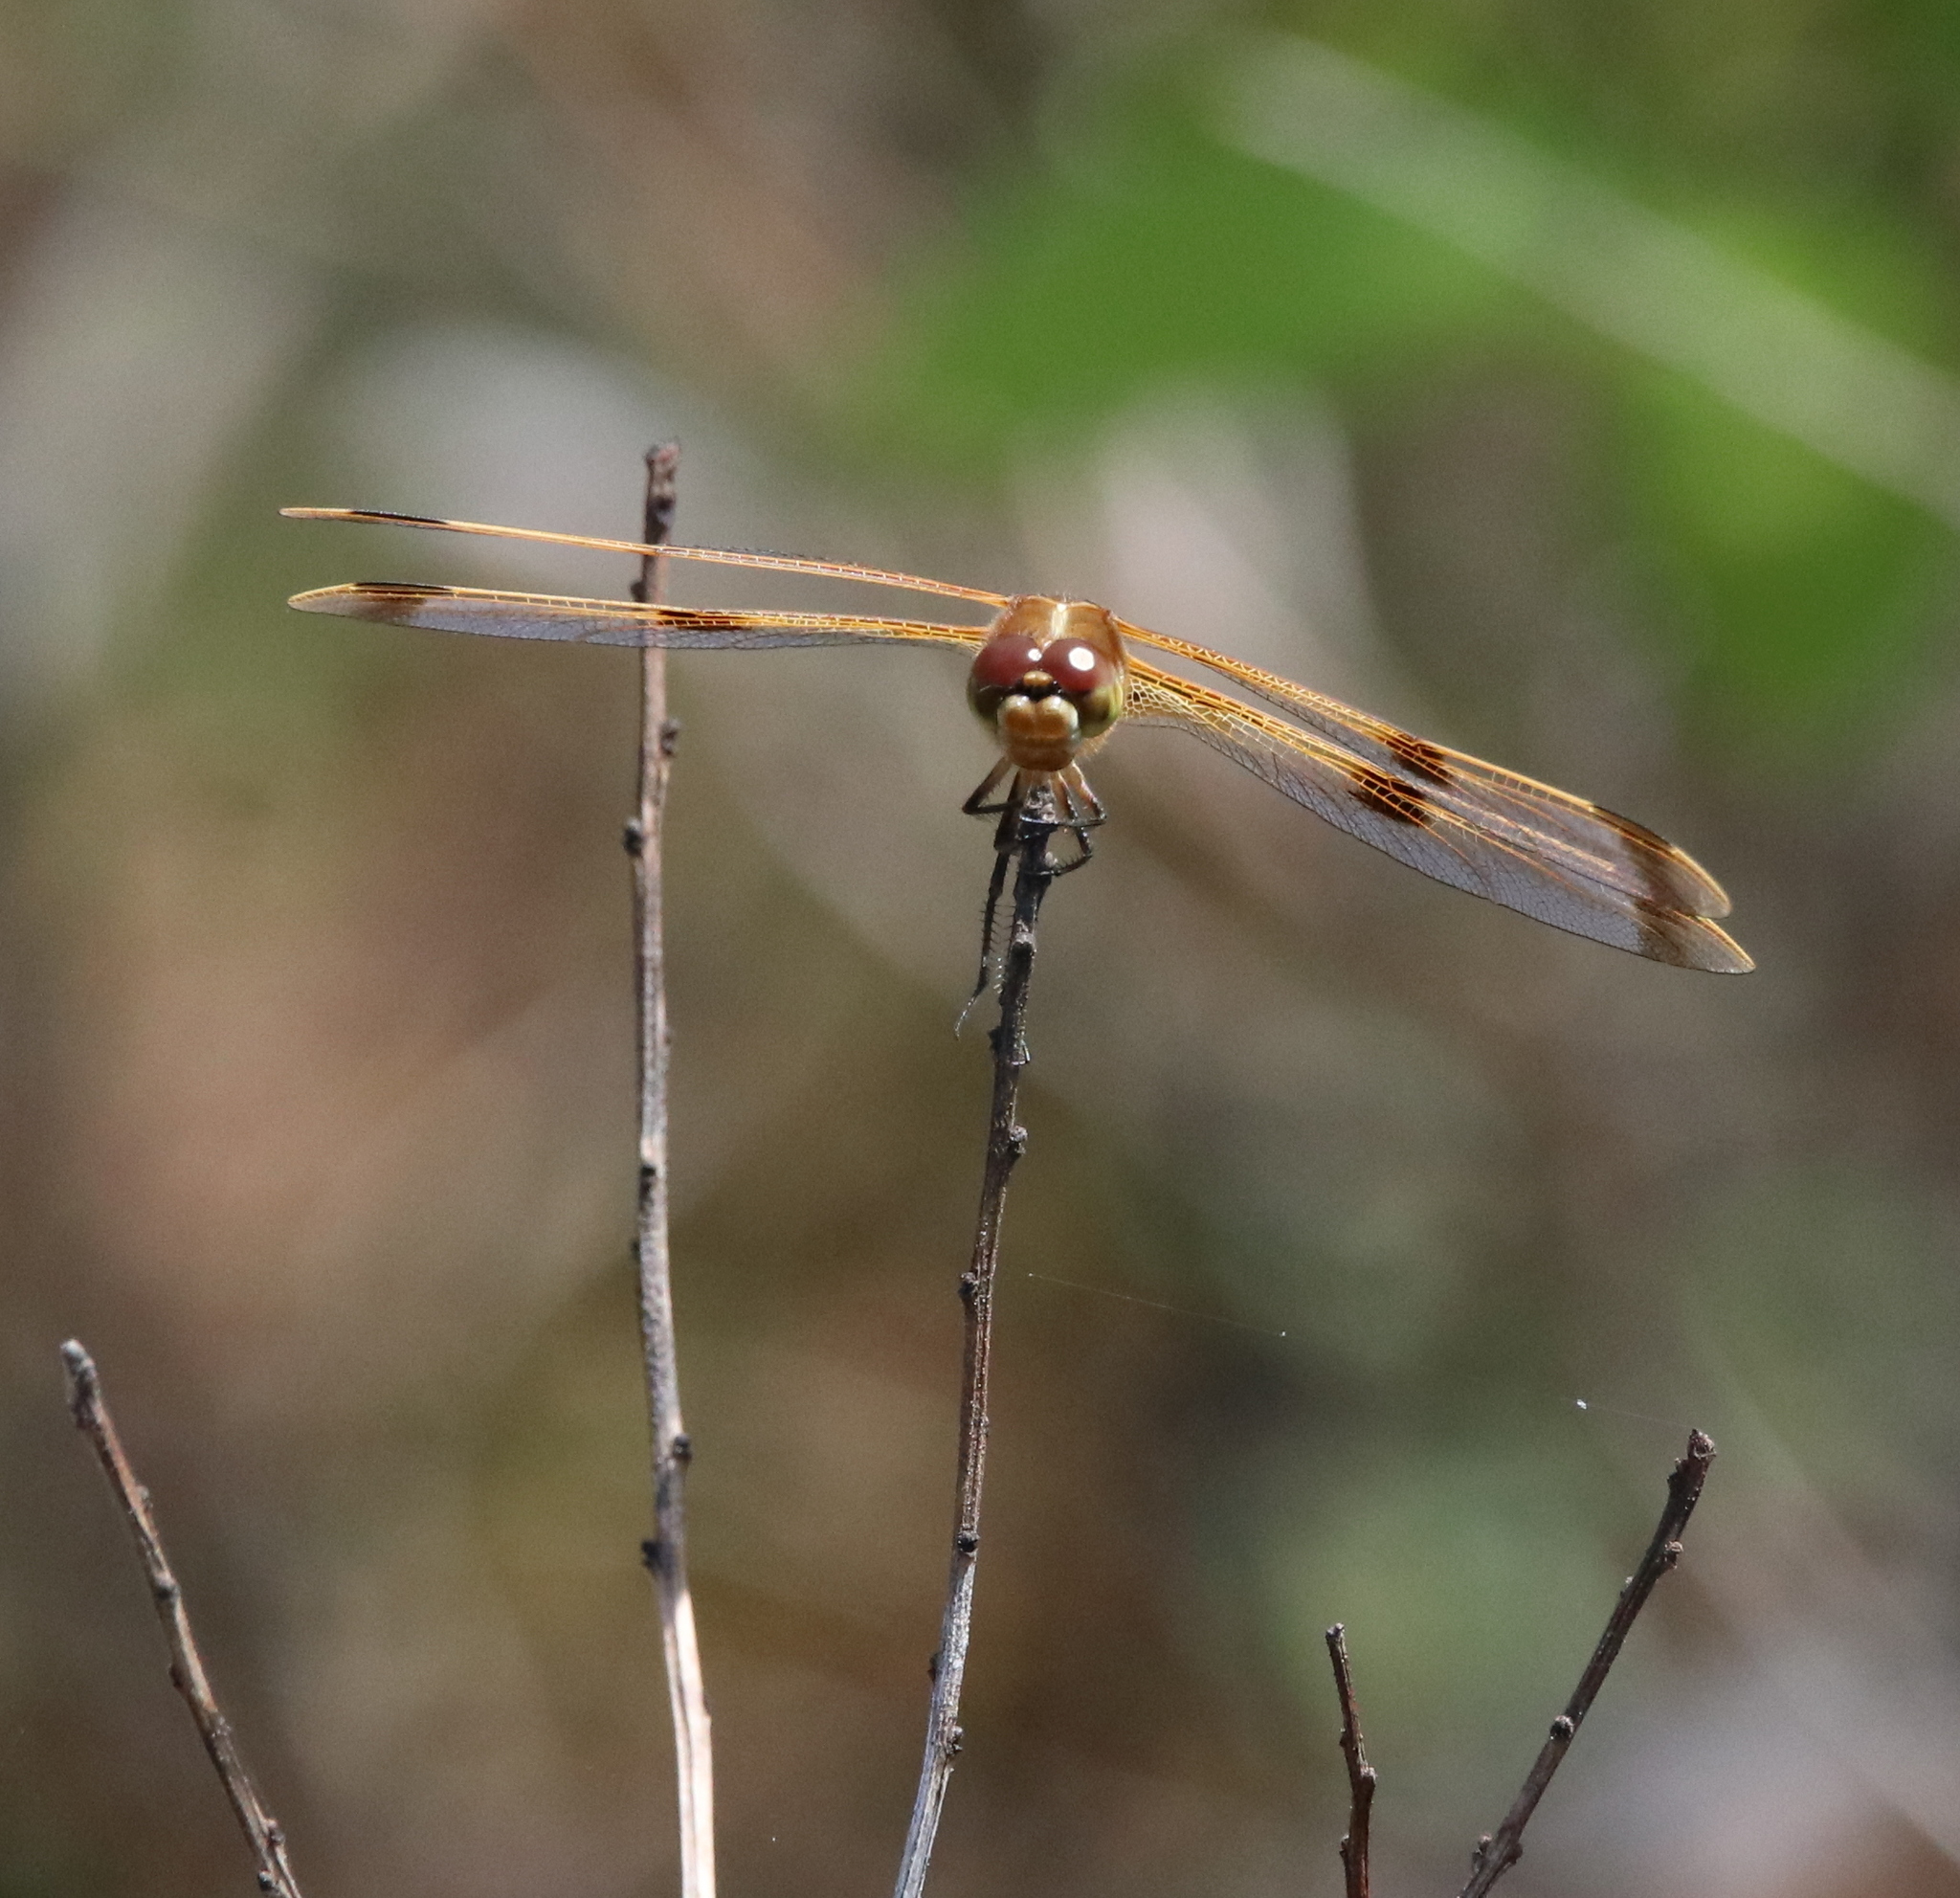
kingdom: Animalia
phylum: Arthropoda
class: Insecta
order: Odonata
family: Libellulidae
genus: Libellula
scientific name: Libellula semifasciata
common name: Painted skimmer
